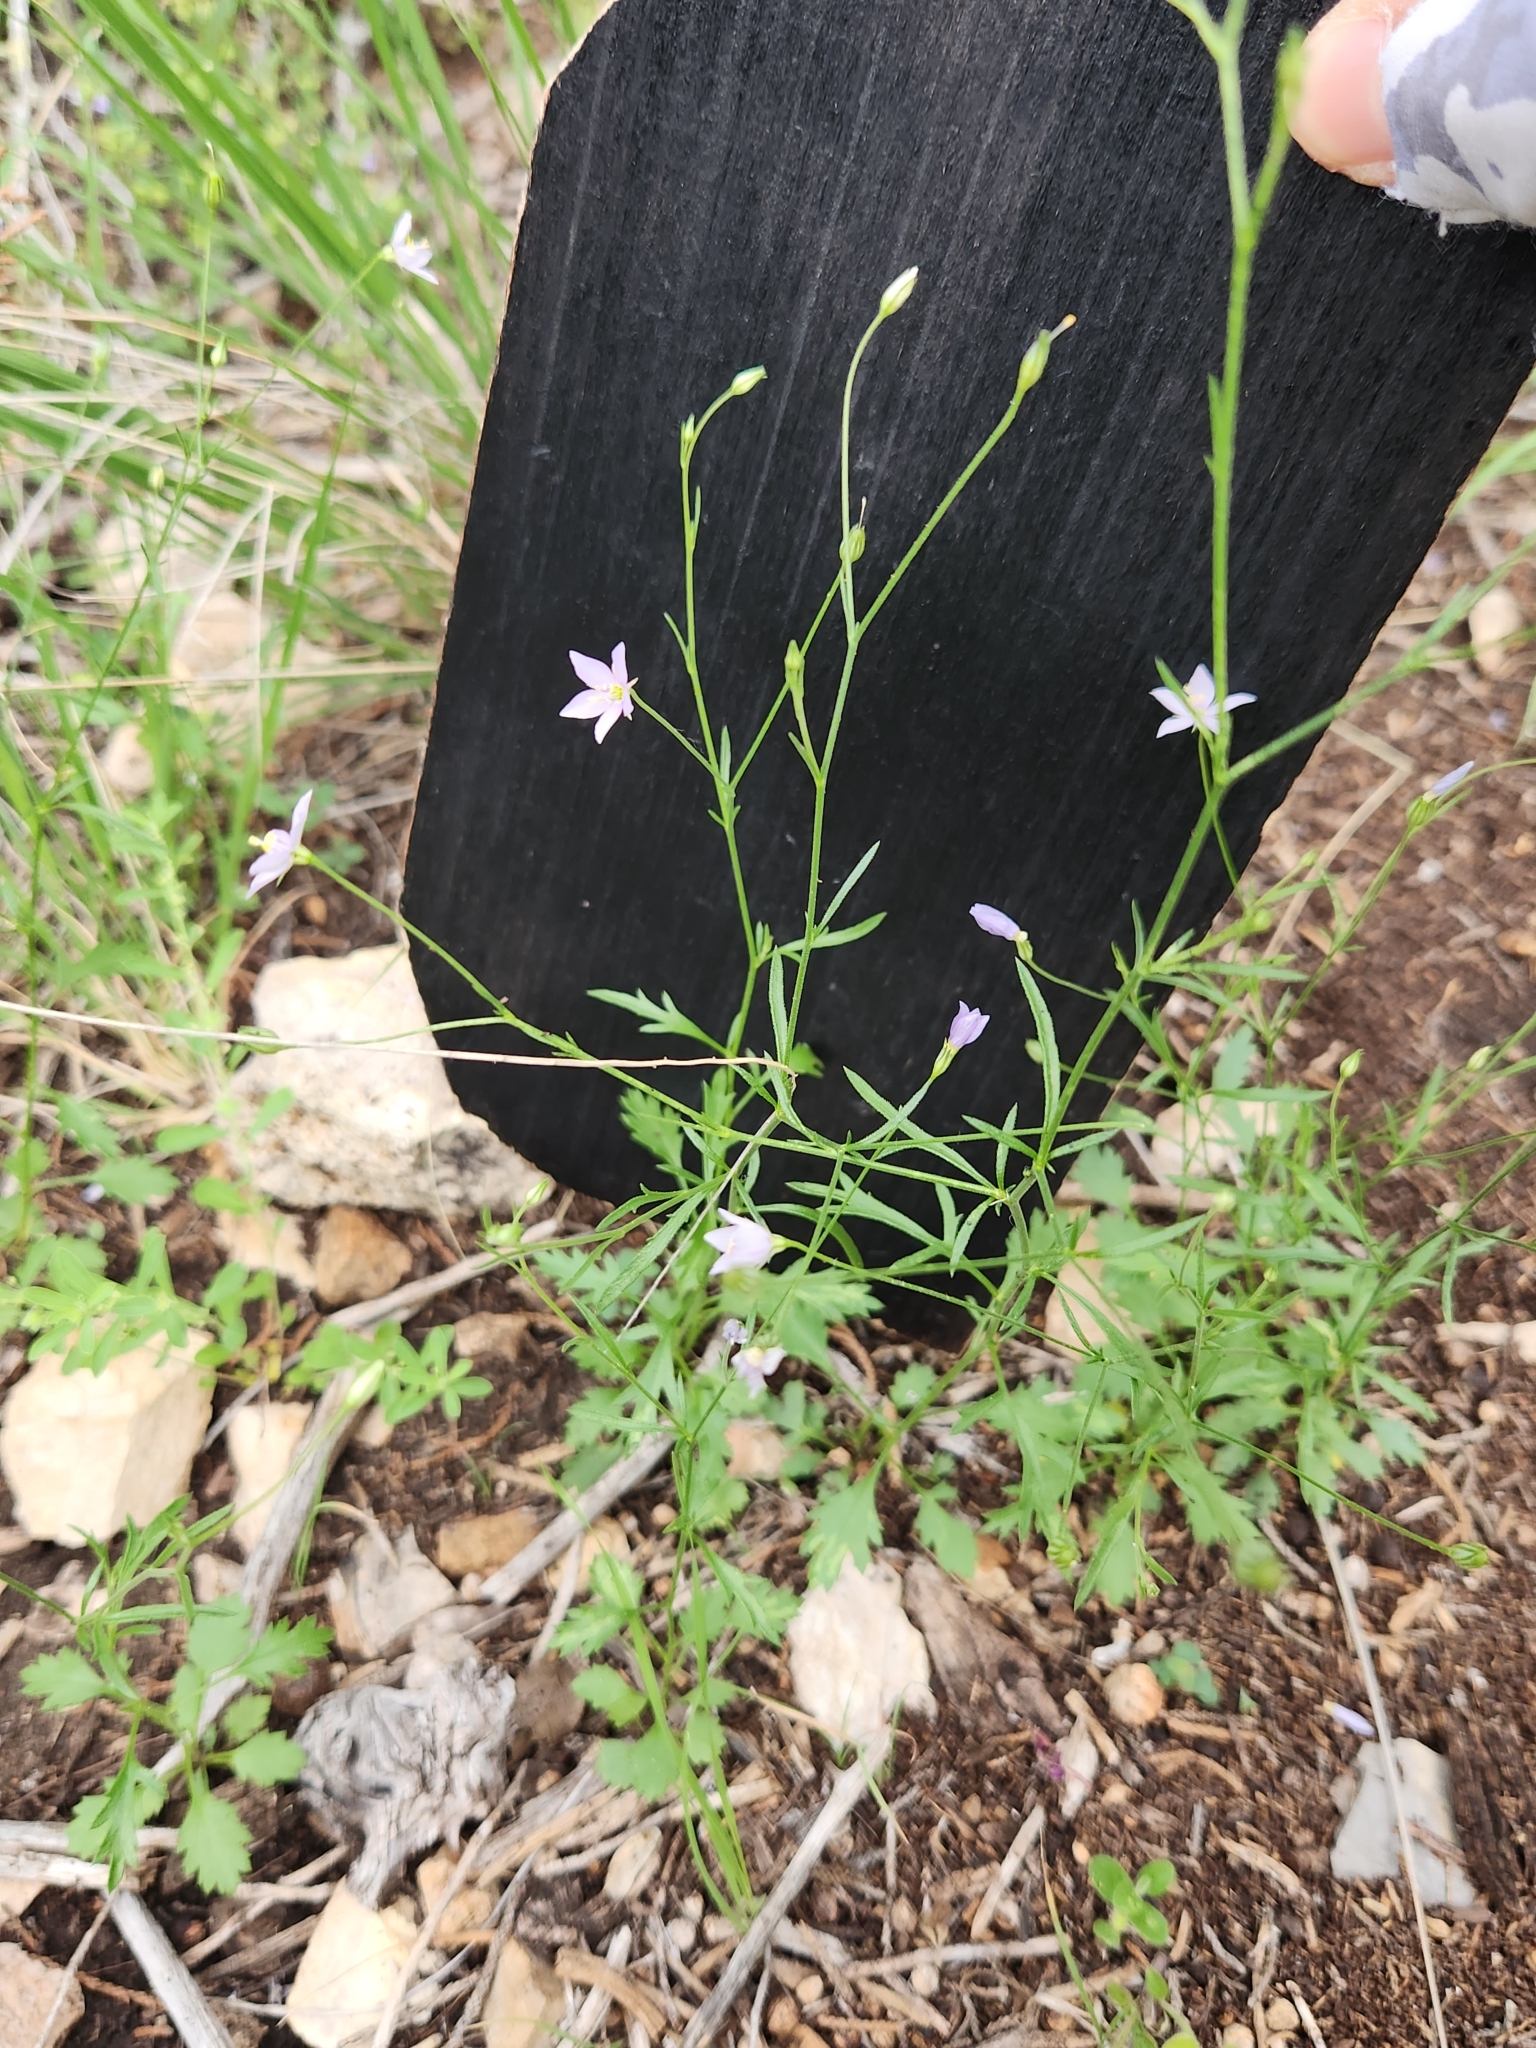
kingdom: Plantae
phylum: Tracheophyta
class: Magnoliopsida
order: Ericales
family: Polemoniaceae
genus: Giliastrum
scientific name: Giliastrum incisum
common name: Splitleaf gilia
